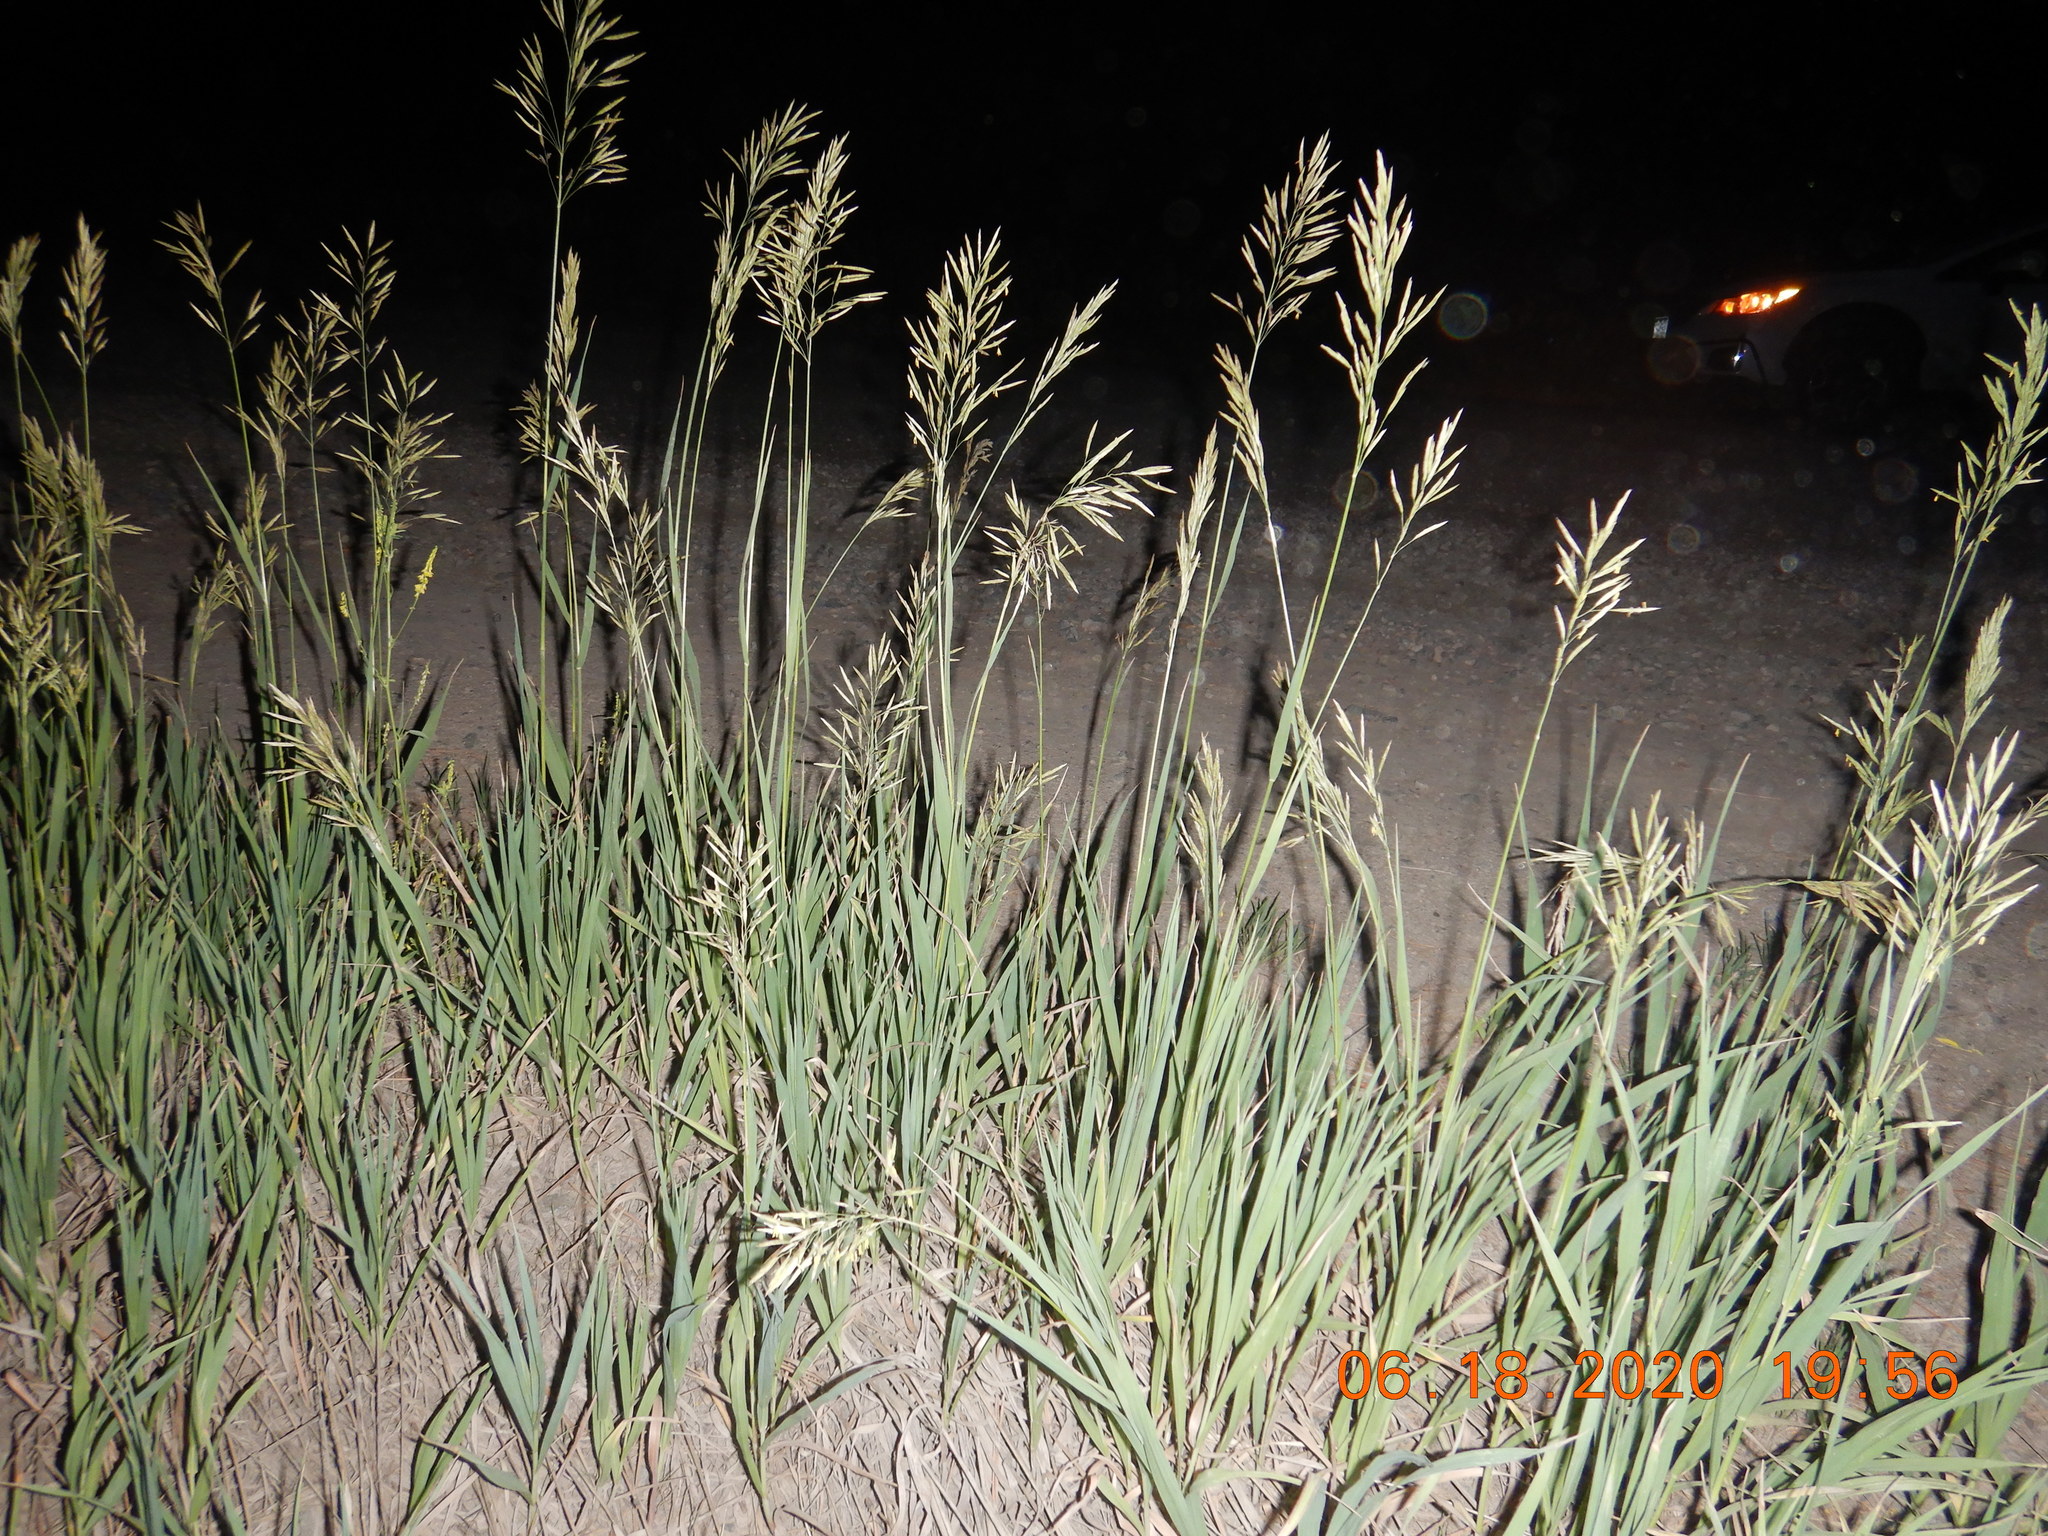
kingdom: Plantae
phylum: Tracheophyta
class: Liliopsida
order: Poales
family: Poaceae
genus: Bromus
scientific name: Bromus inermis
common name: Smooth brome
